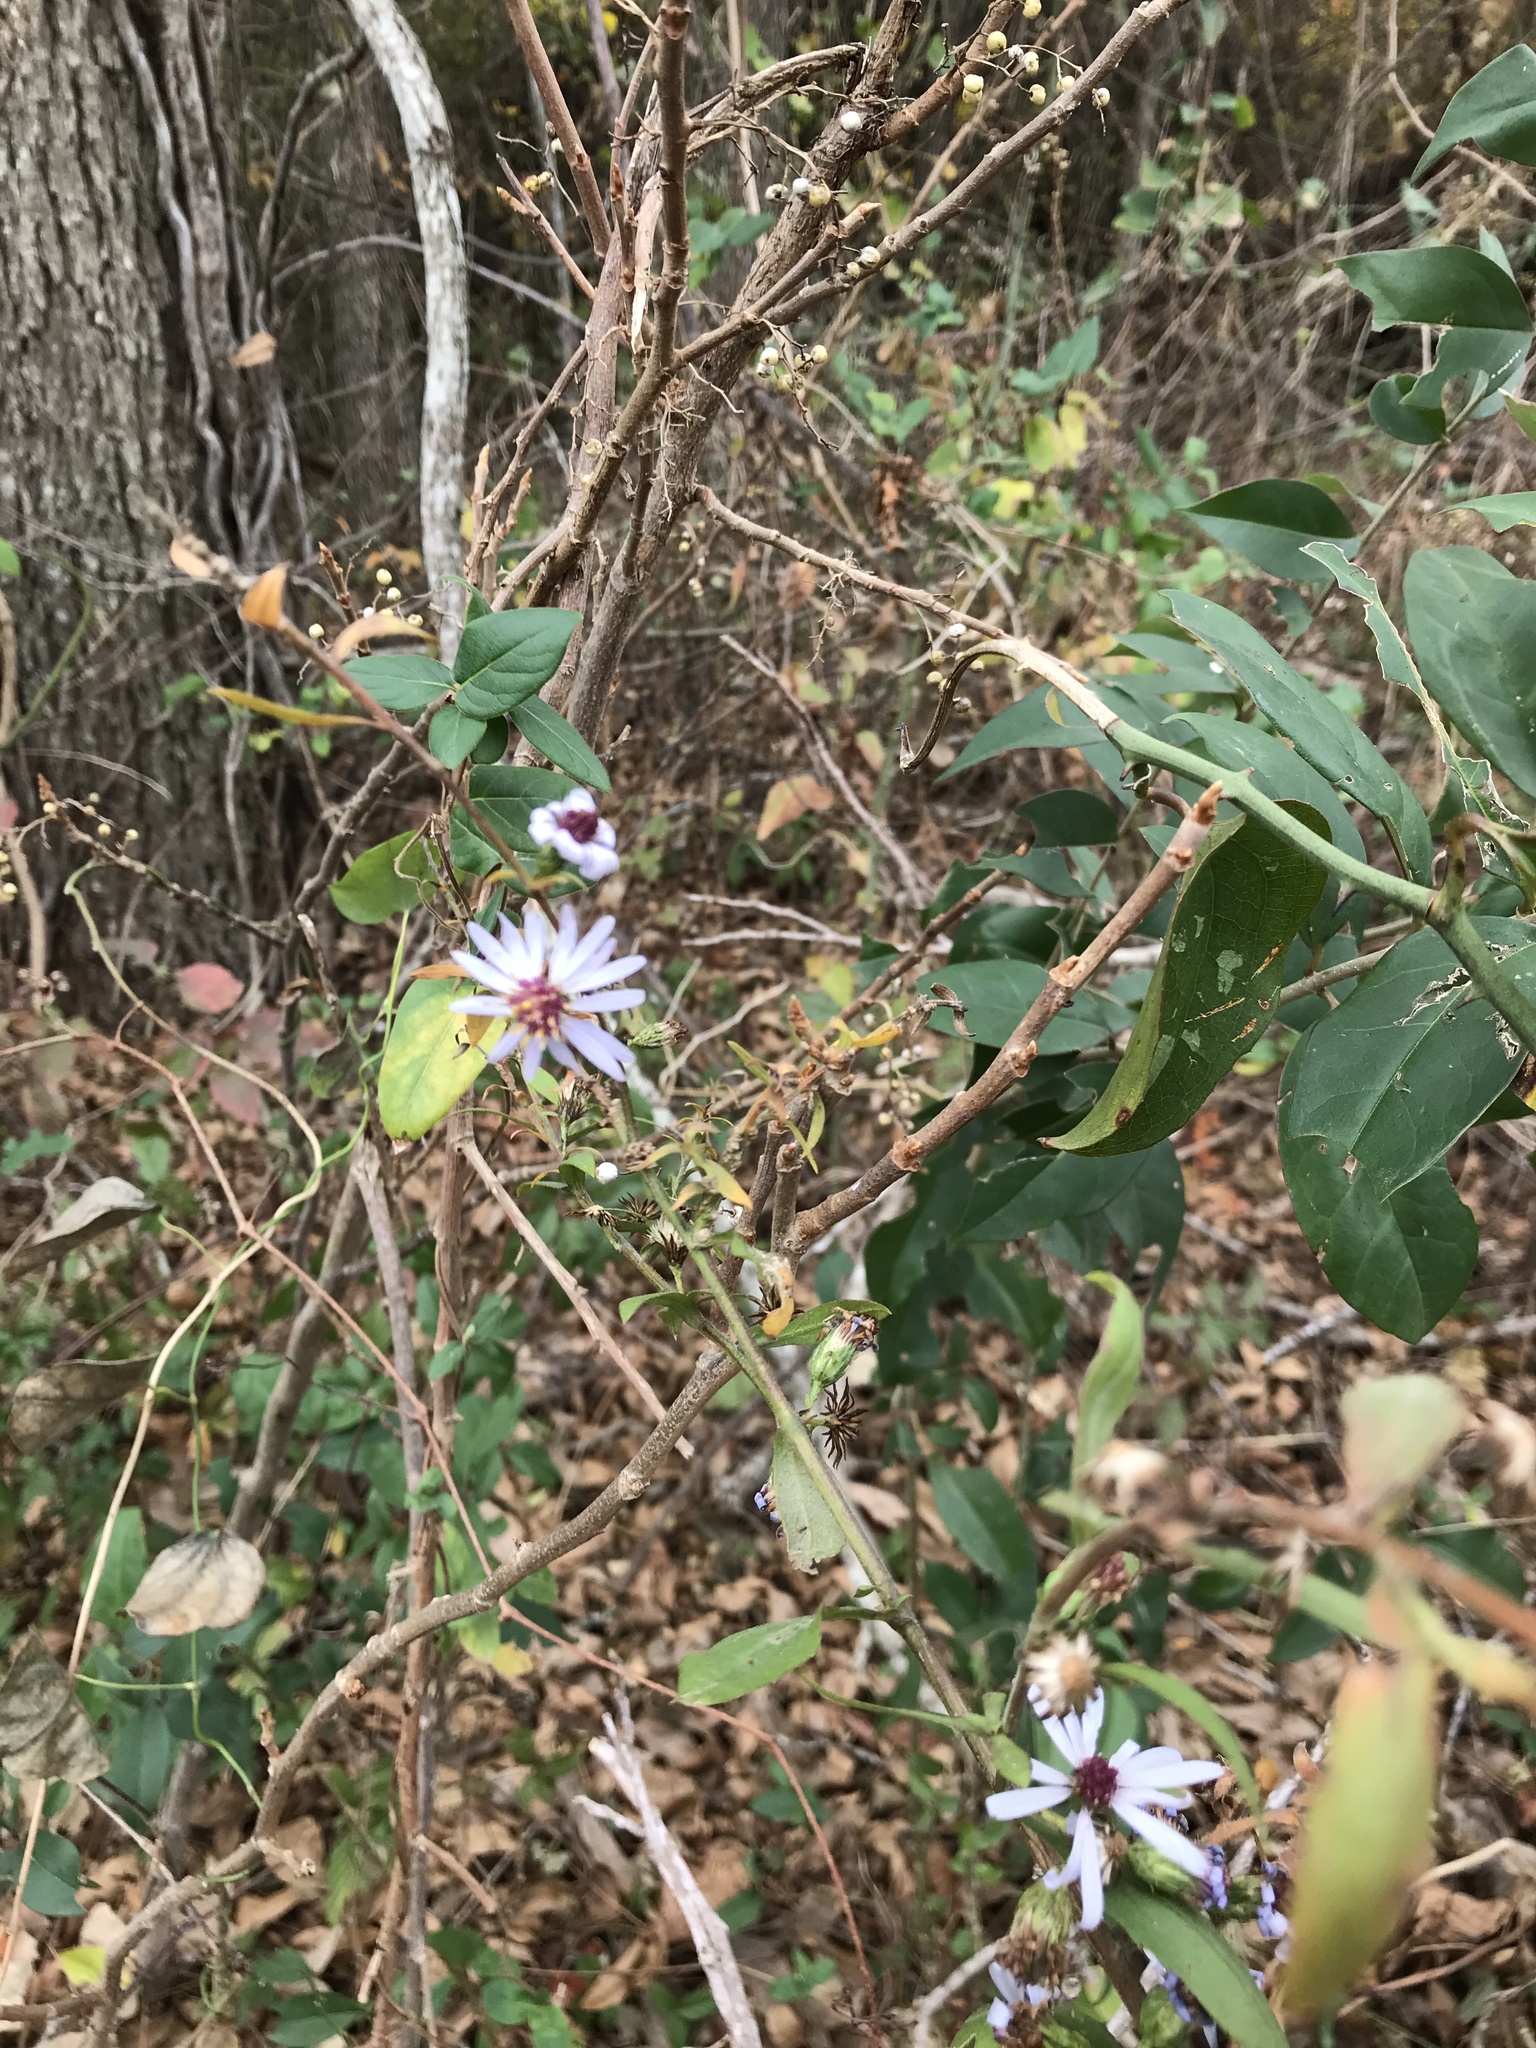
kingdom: Plantae
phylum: Tracheophyta
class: Magnoliopsida
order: Asterales
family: Asteraceae
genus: Symphyotrichum
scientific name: Symphyotrichum drummondii
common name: Drummond's aster
